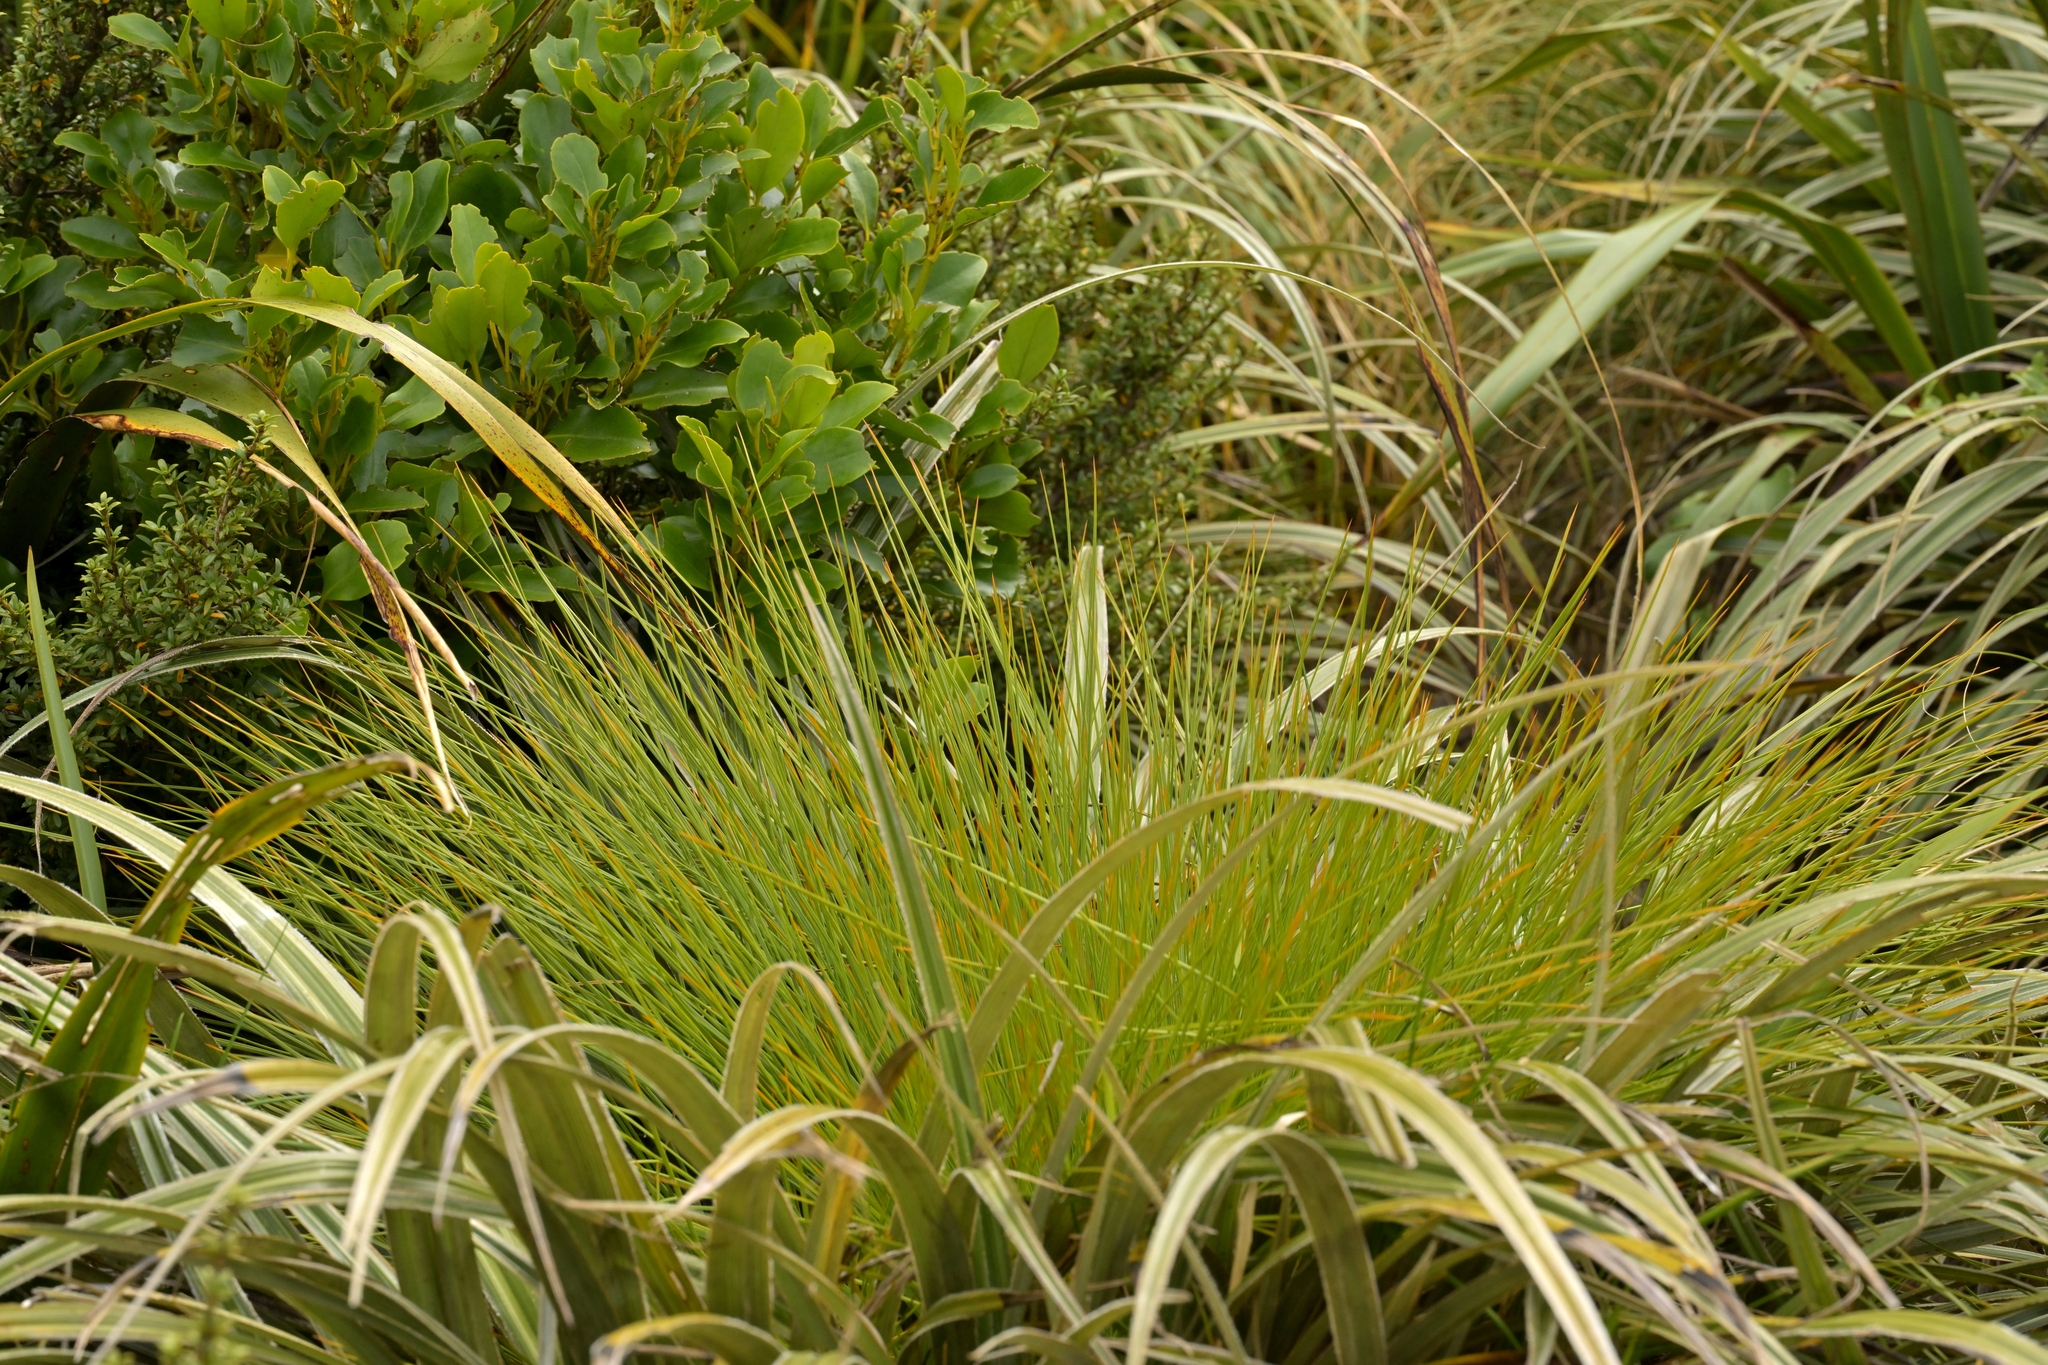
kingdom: Plantae
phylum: Tracheophyta
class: Magnoliopsida
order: Apiales
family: Apiaceae
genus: Aciphylla
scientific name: Aciphylla squarrosa
